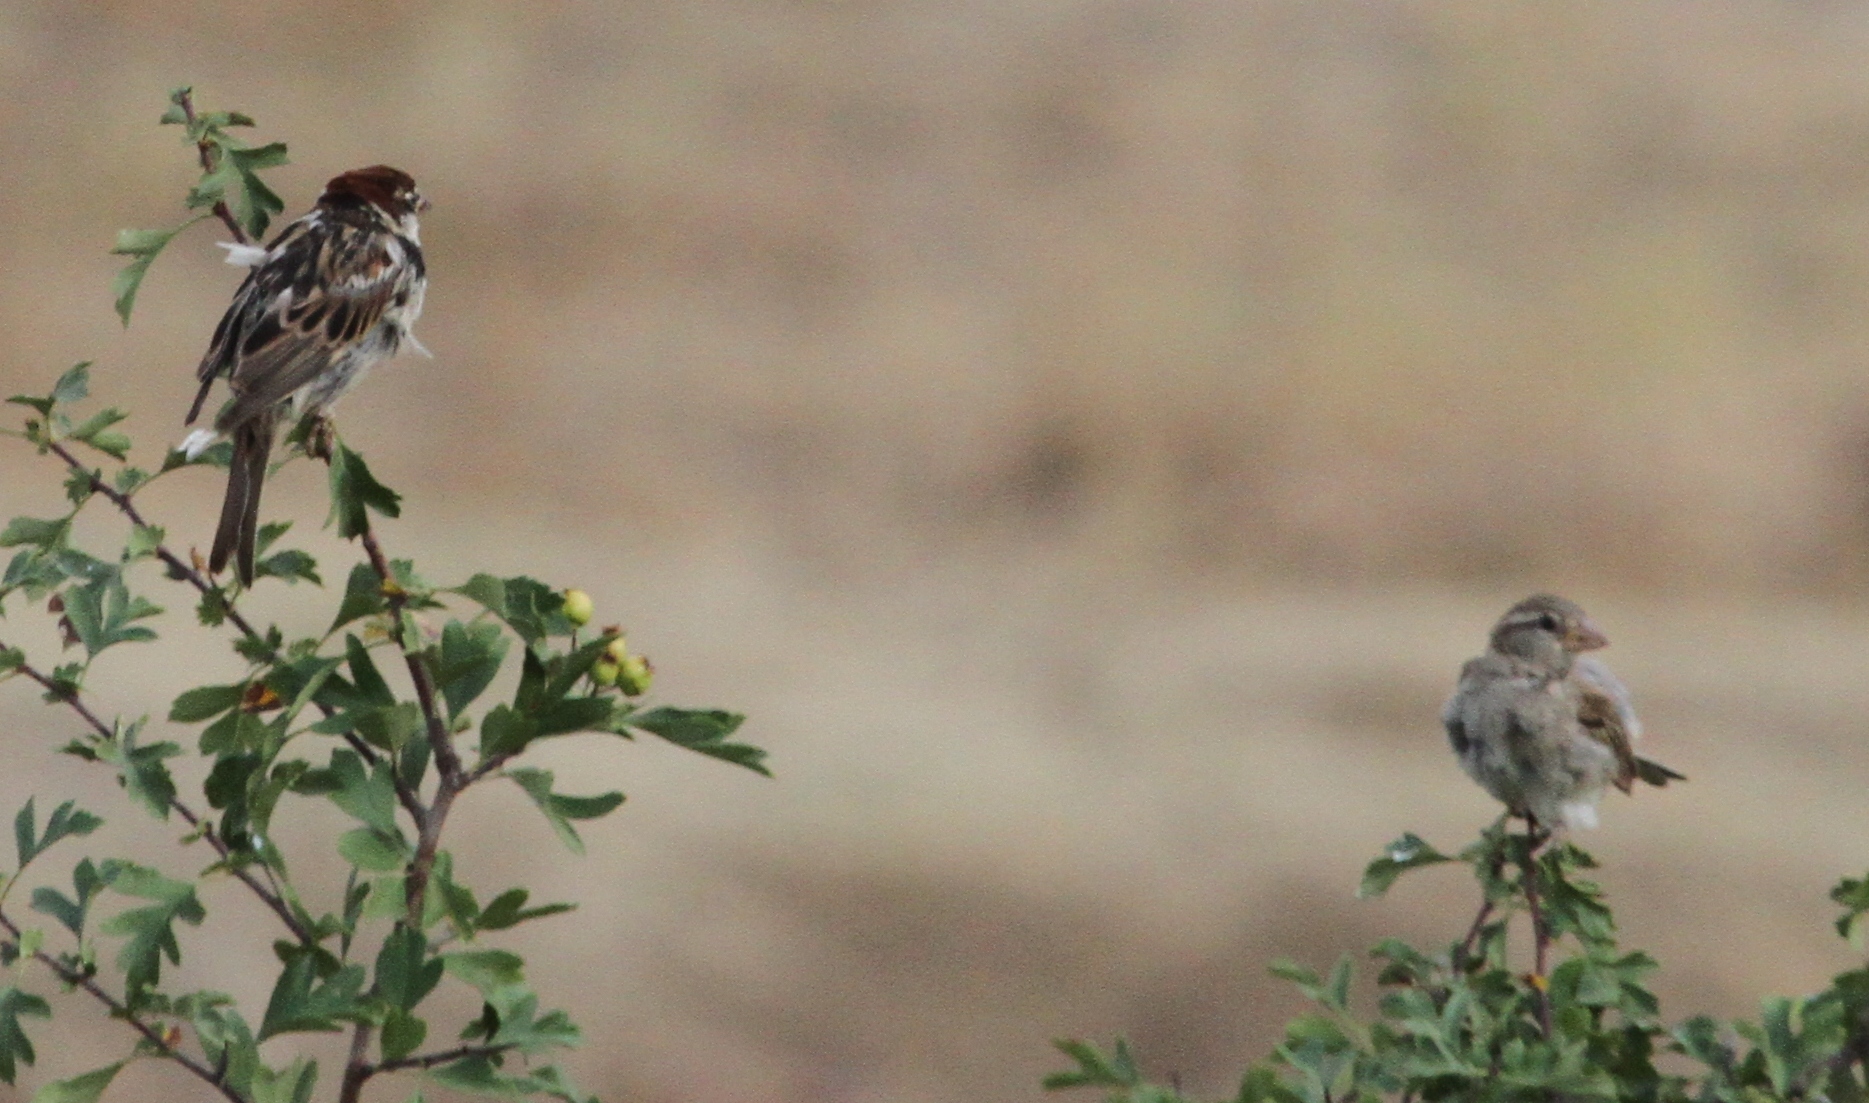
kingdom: Animalia
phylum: Chordata
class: Aves
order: Passeriformes
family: Passeridae
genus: Passer
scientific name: Passer hispaniolensis
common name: Spanish sparrow
